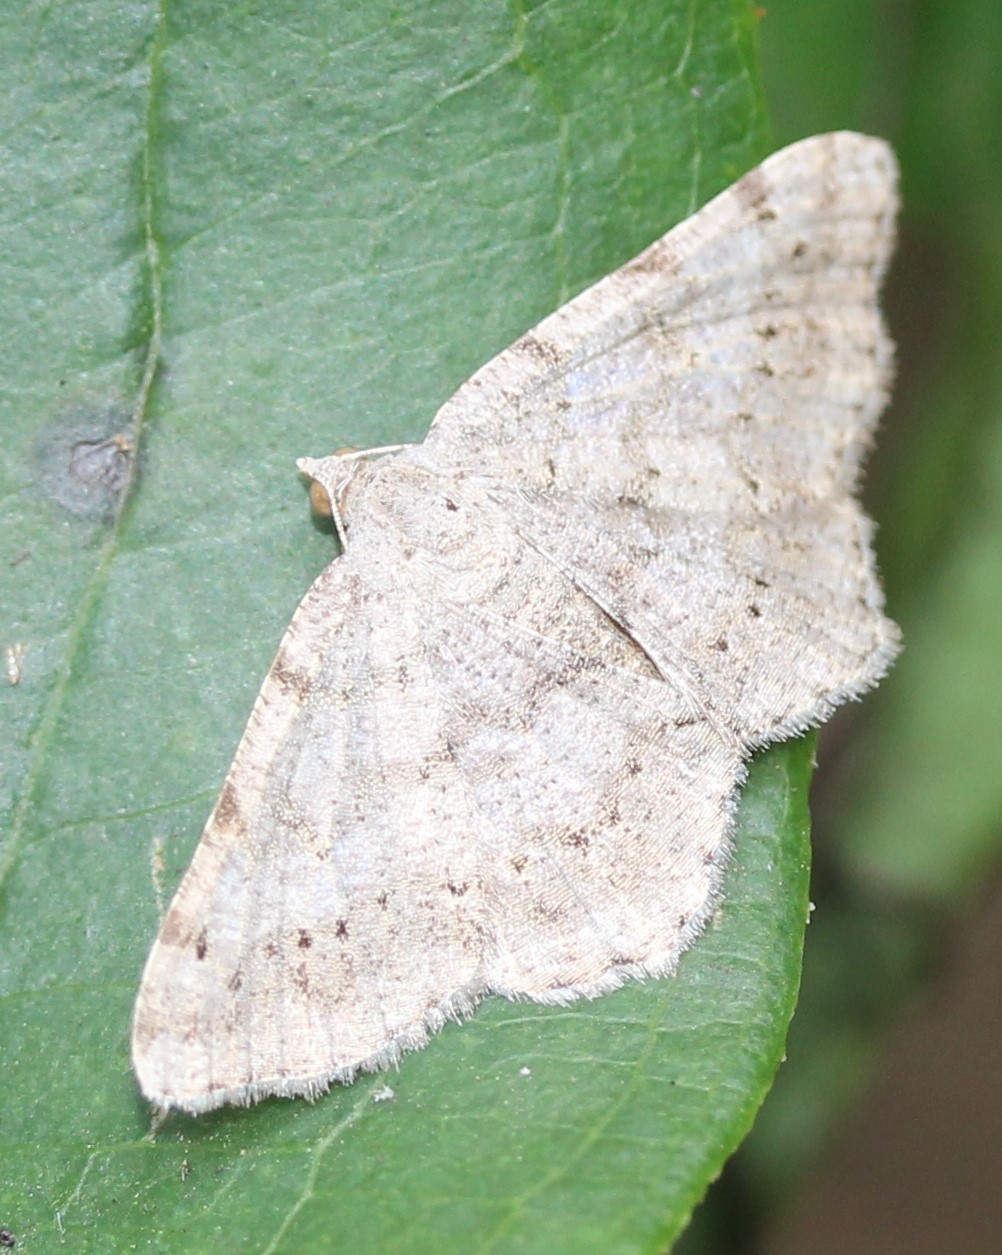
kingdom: Animalia
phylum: Arthropoda
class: Insecta
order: Lepidoptera
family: Geometridae
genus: Digrammia
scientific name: Digrammia ocellinata
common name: Faint-spotted angle
